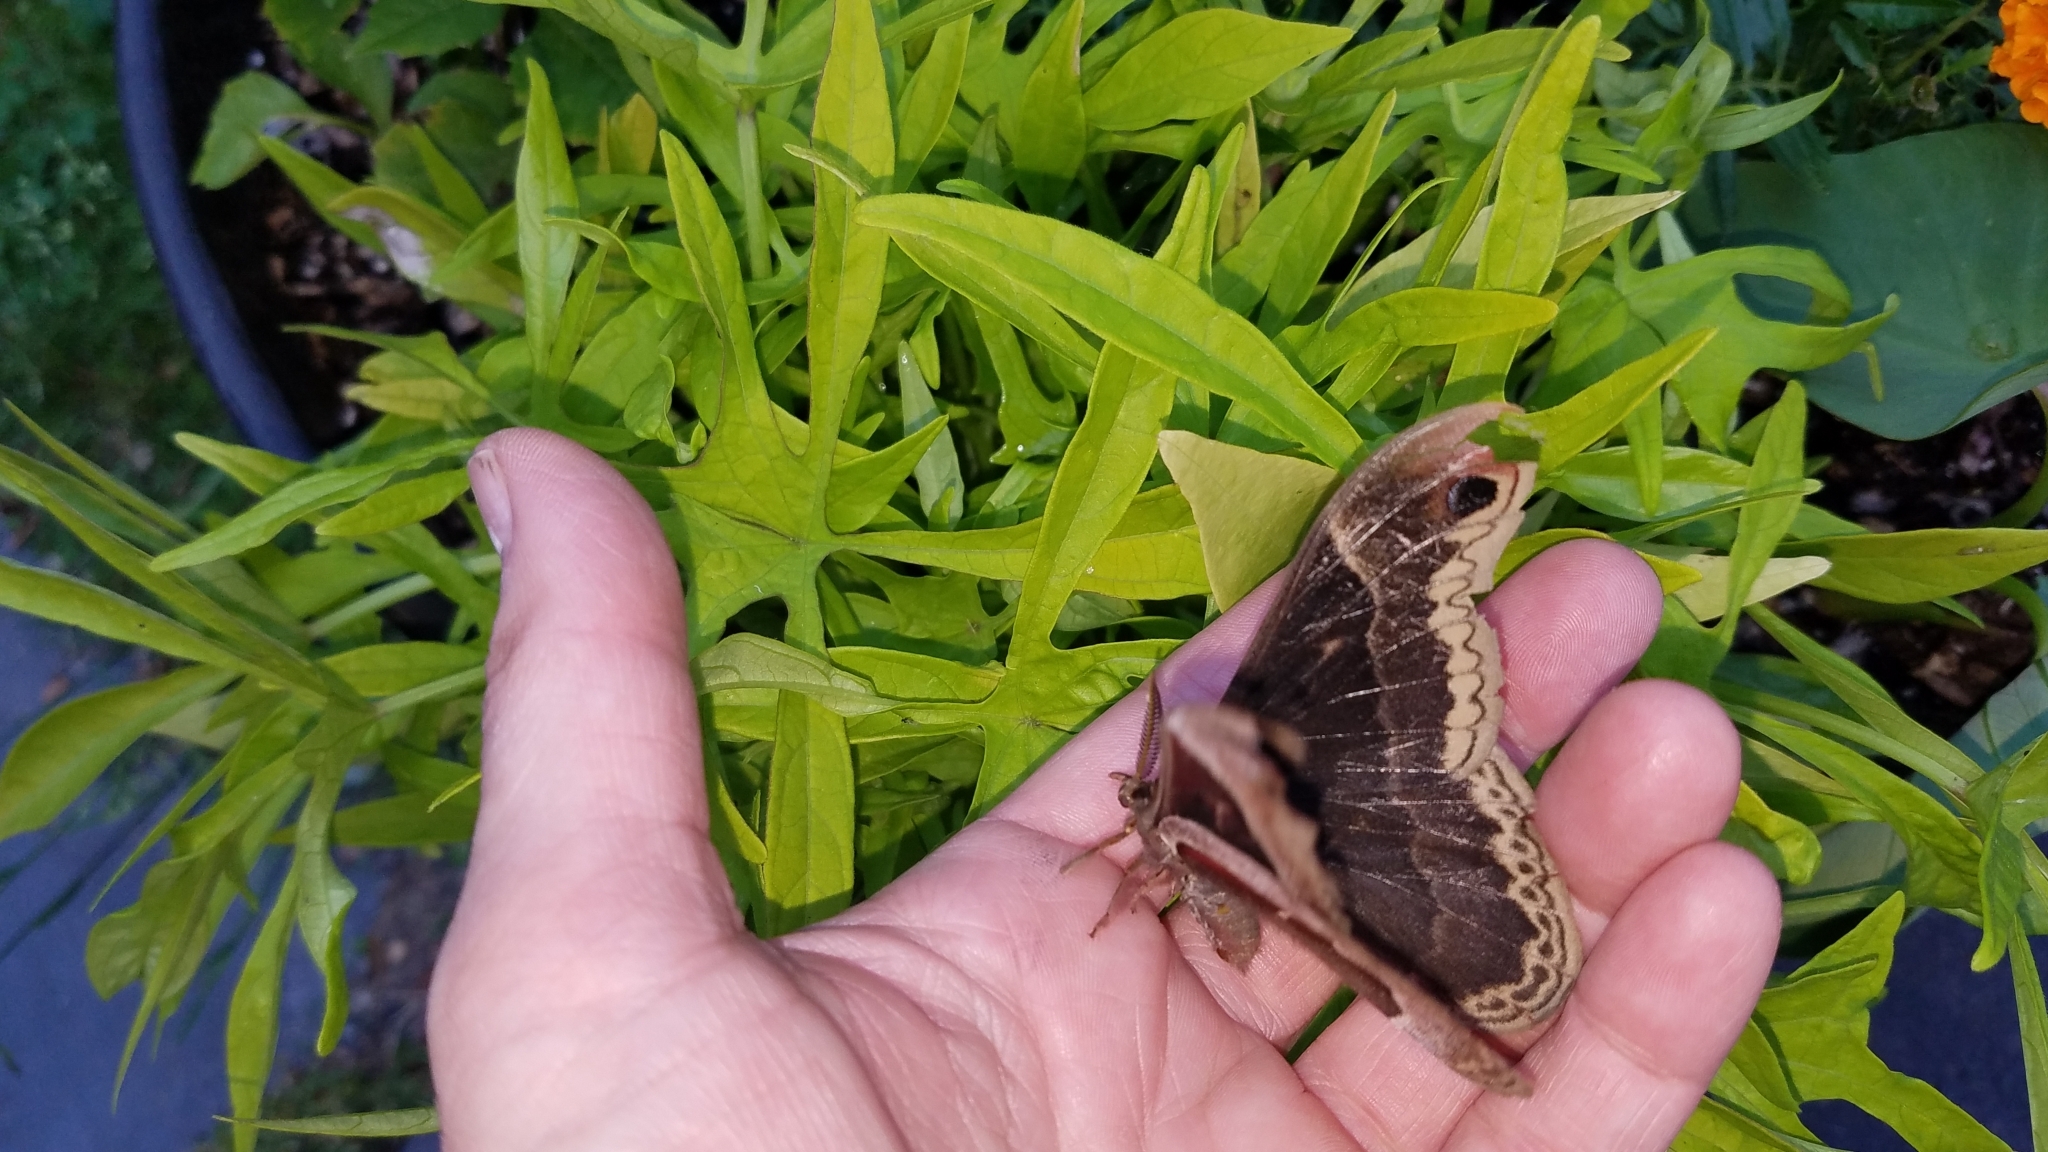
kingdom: Animalia
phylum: Arthropoda
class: Insecta
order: Lepidoptera
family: Saturniidae
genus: Callosamia
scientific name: Callosamia promethea
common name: Promethea silkmoth
